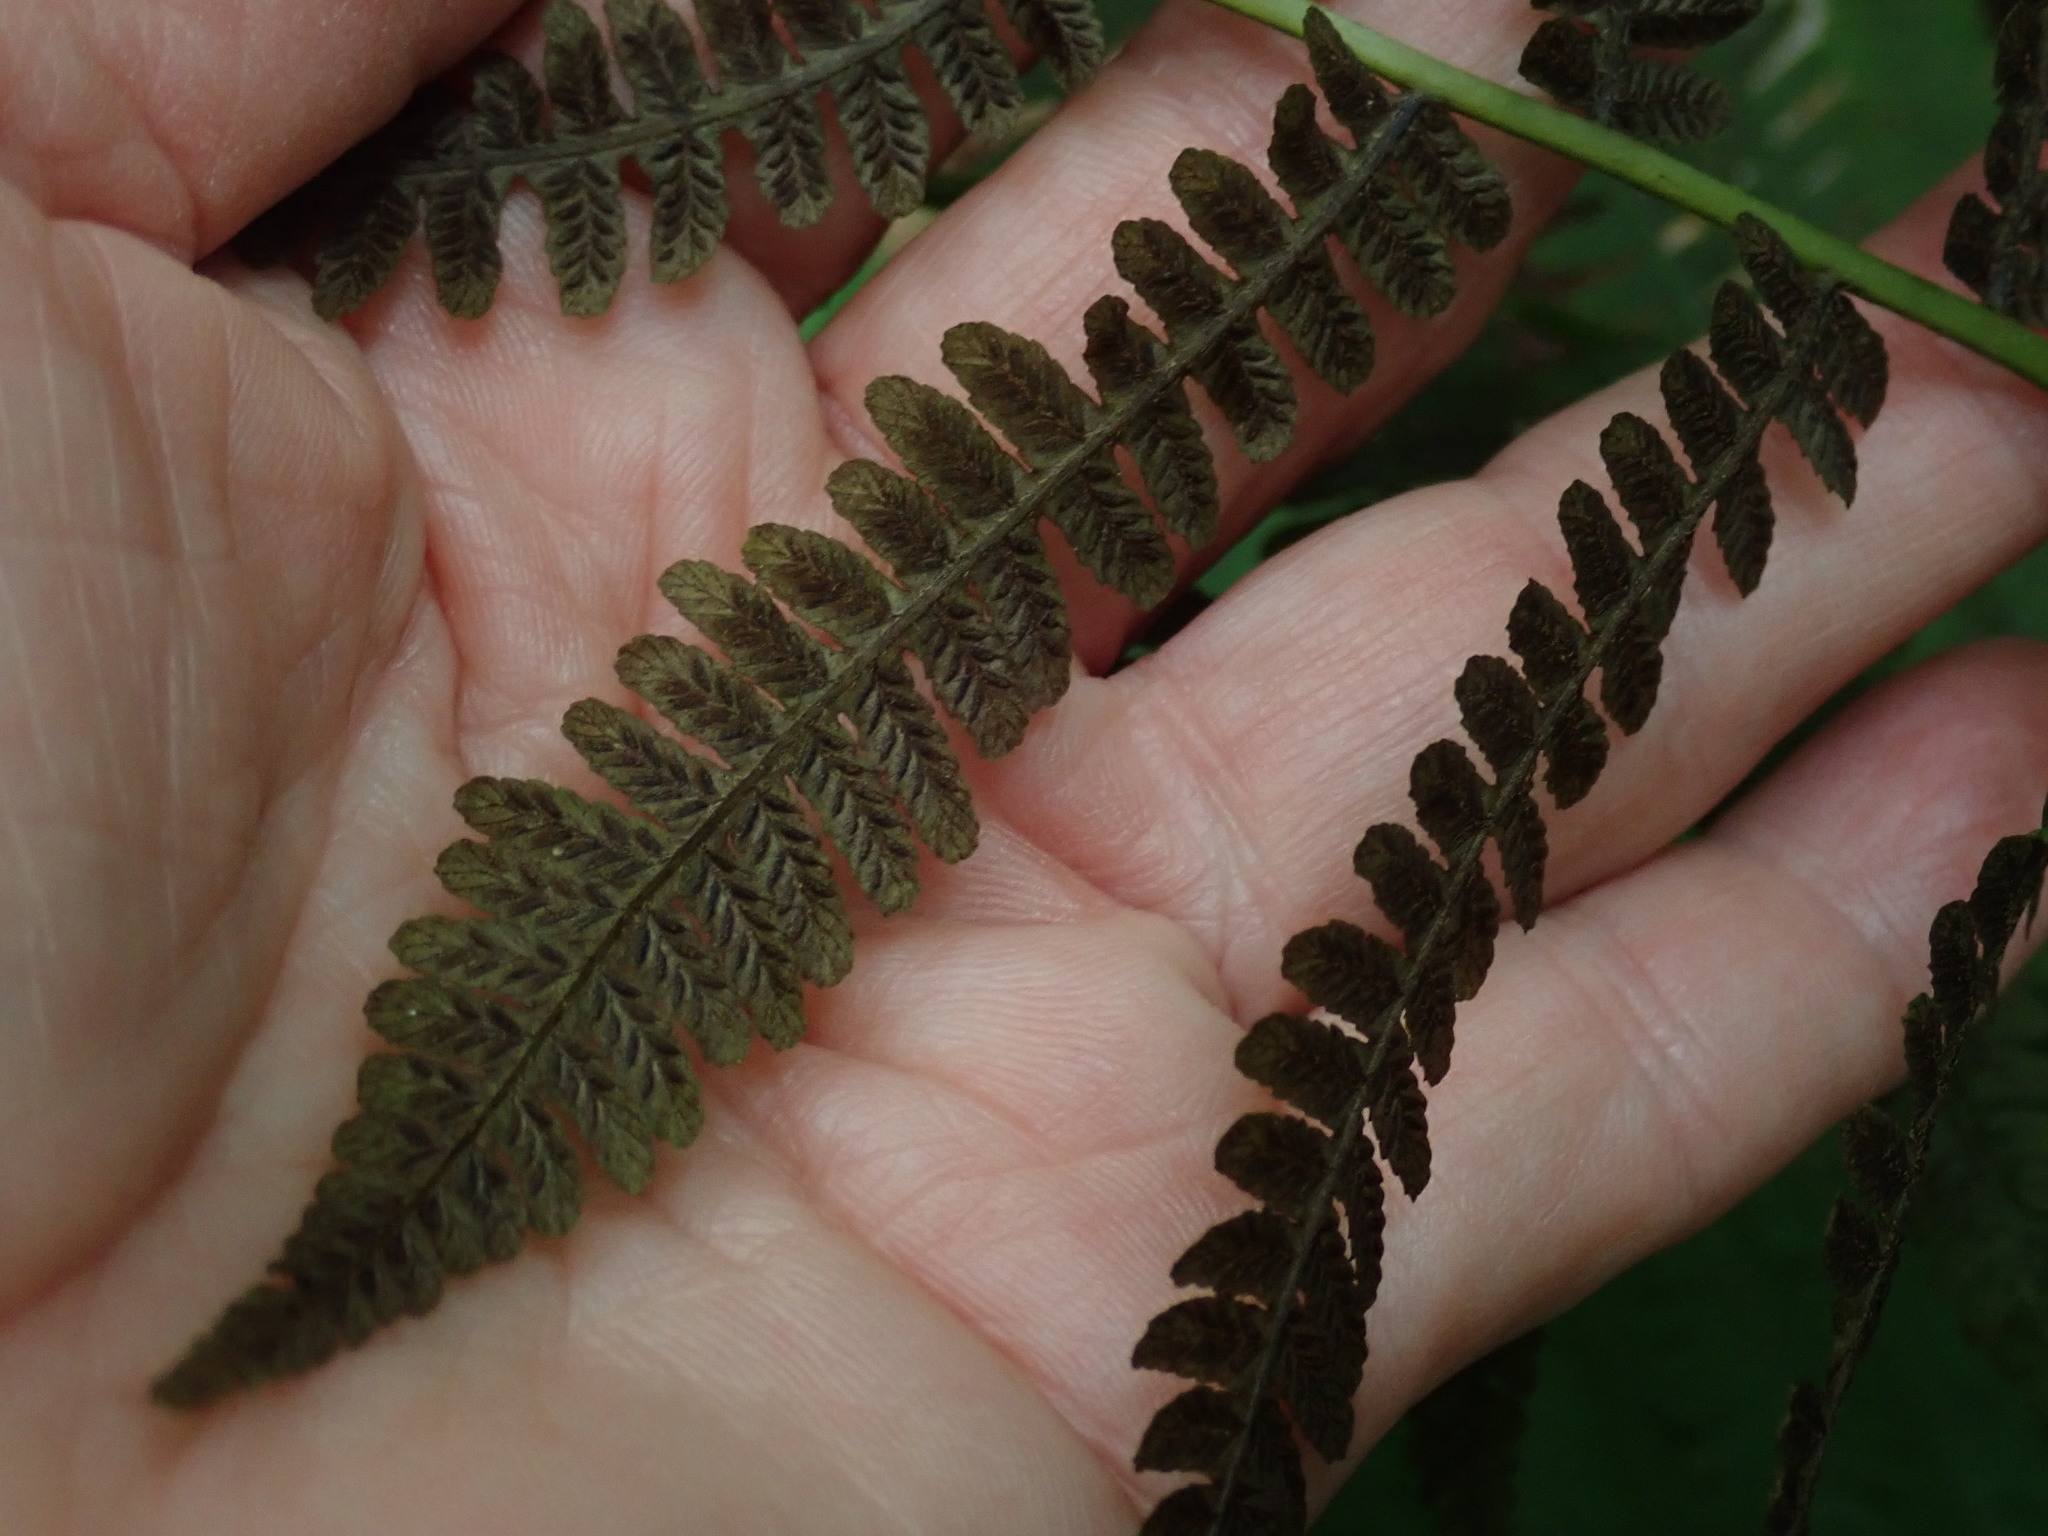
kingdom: Plantae
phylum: Tracheophyta
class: Polypodiopsida
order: Polypodiales
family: Athyriaceae
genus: Deparia
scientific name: Deparia acrostichoides
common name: Silver false spleenwort
